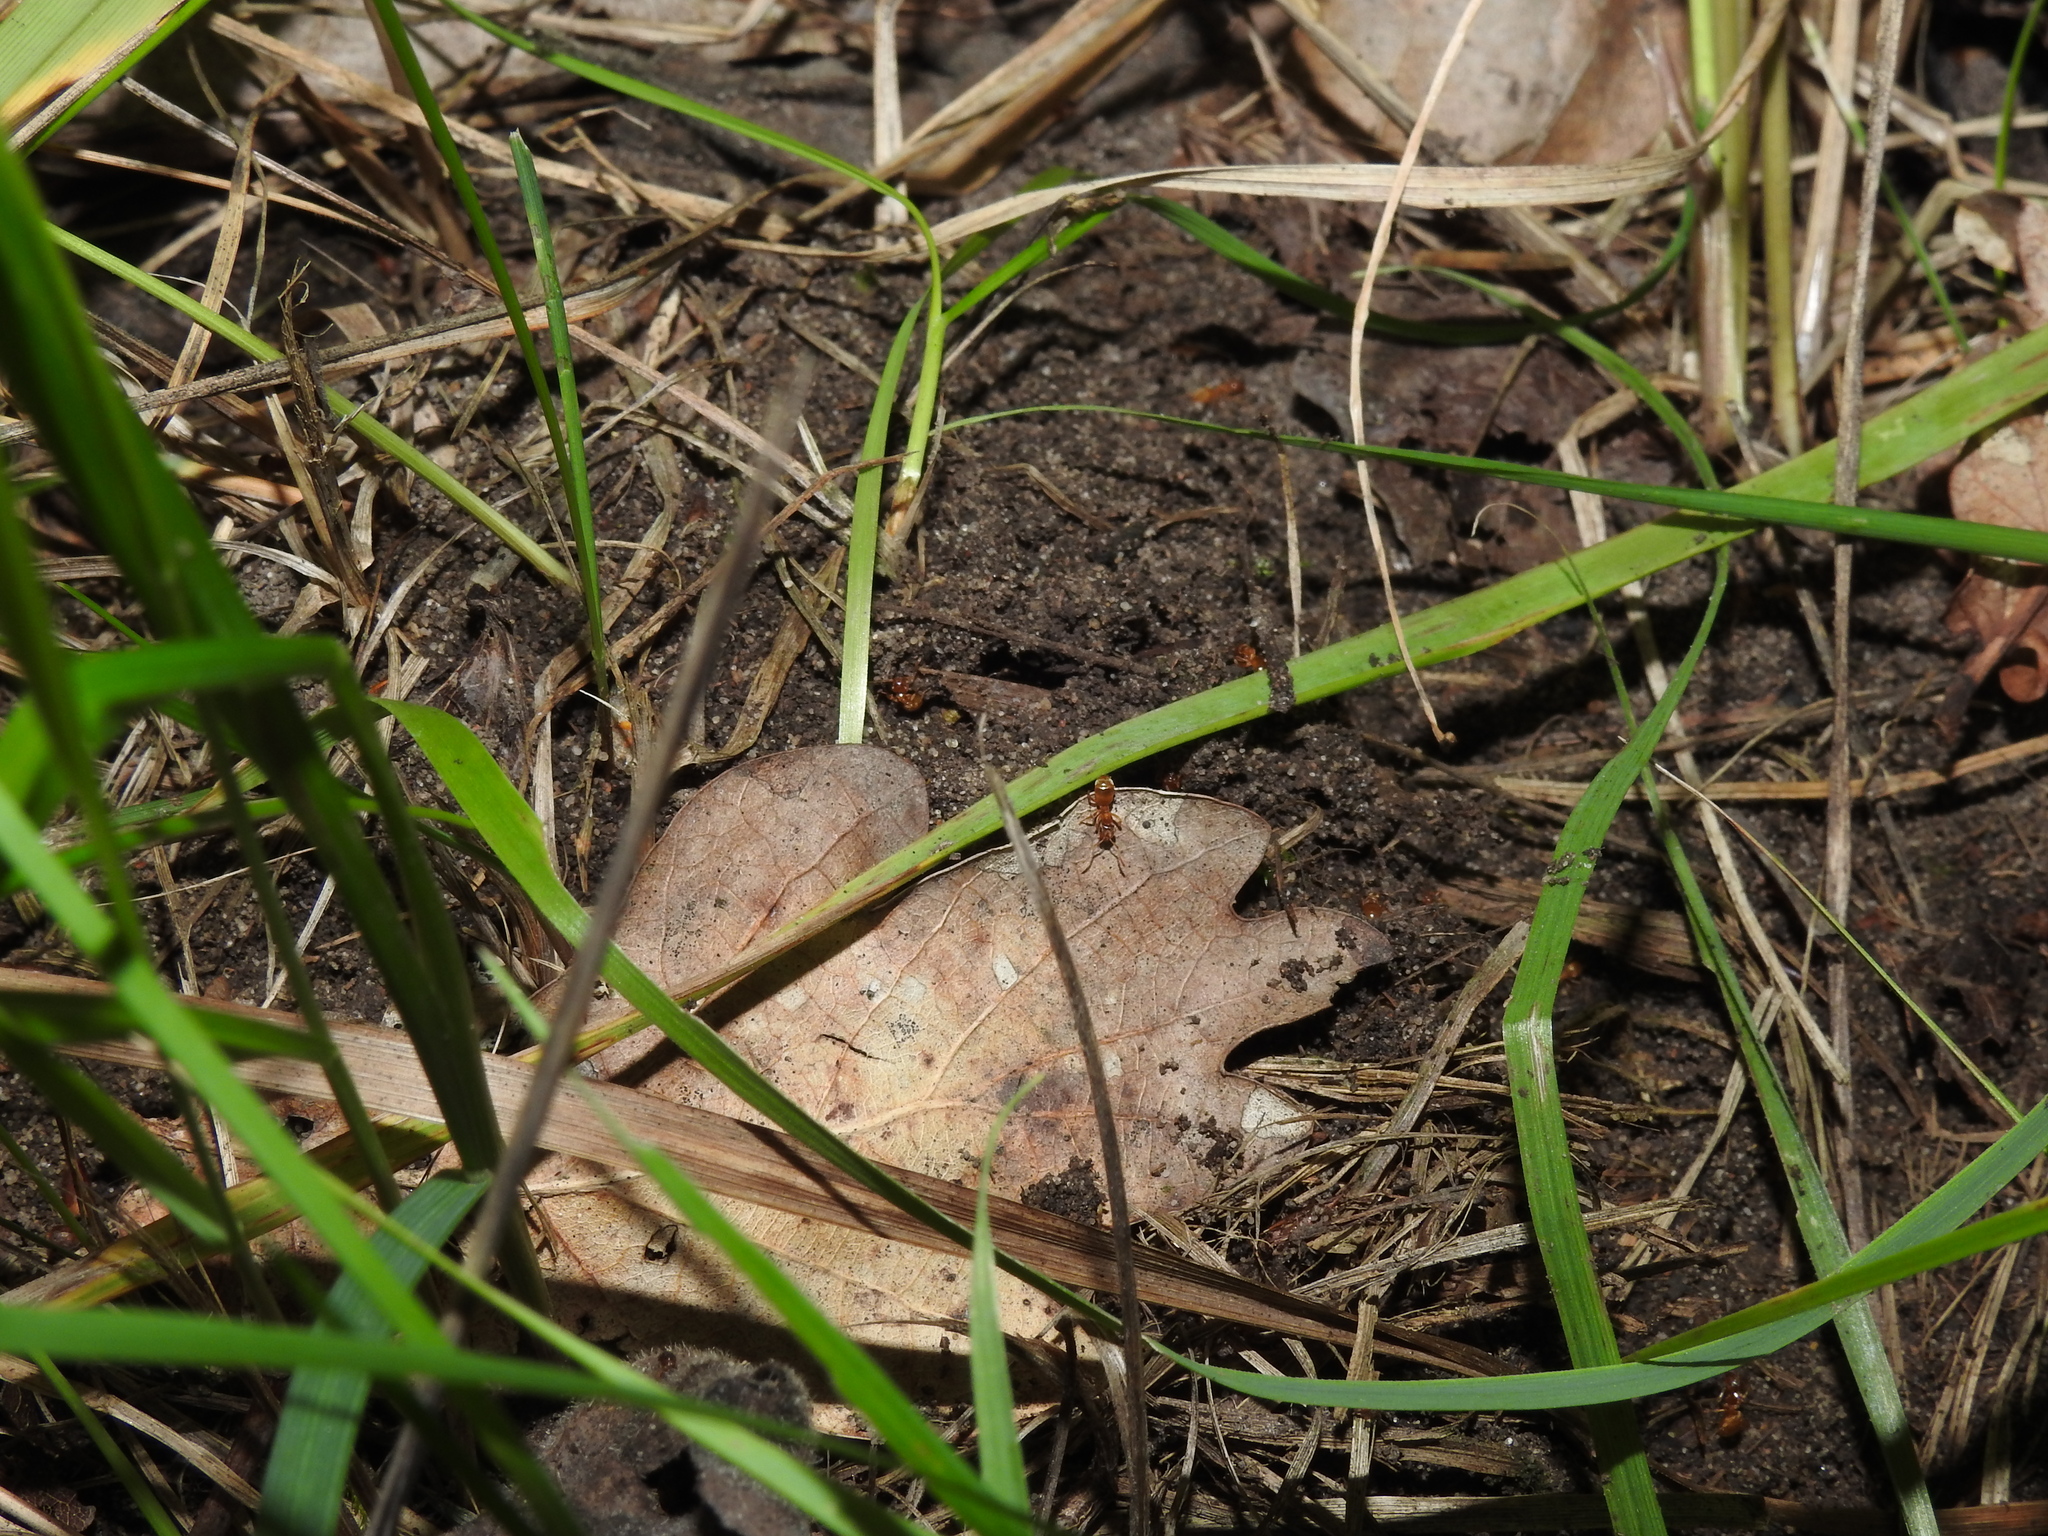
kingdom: Animalia
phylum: Arthropoda
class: Insecta
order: Hymenoptera
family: Formicidae
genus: Lasius
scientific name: Lasius flavus
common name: Blond field ant
